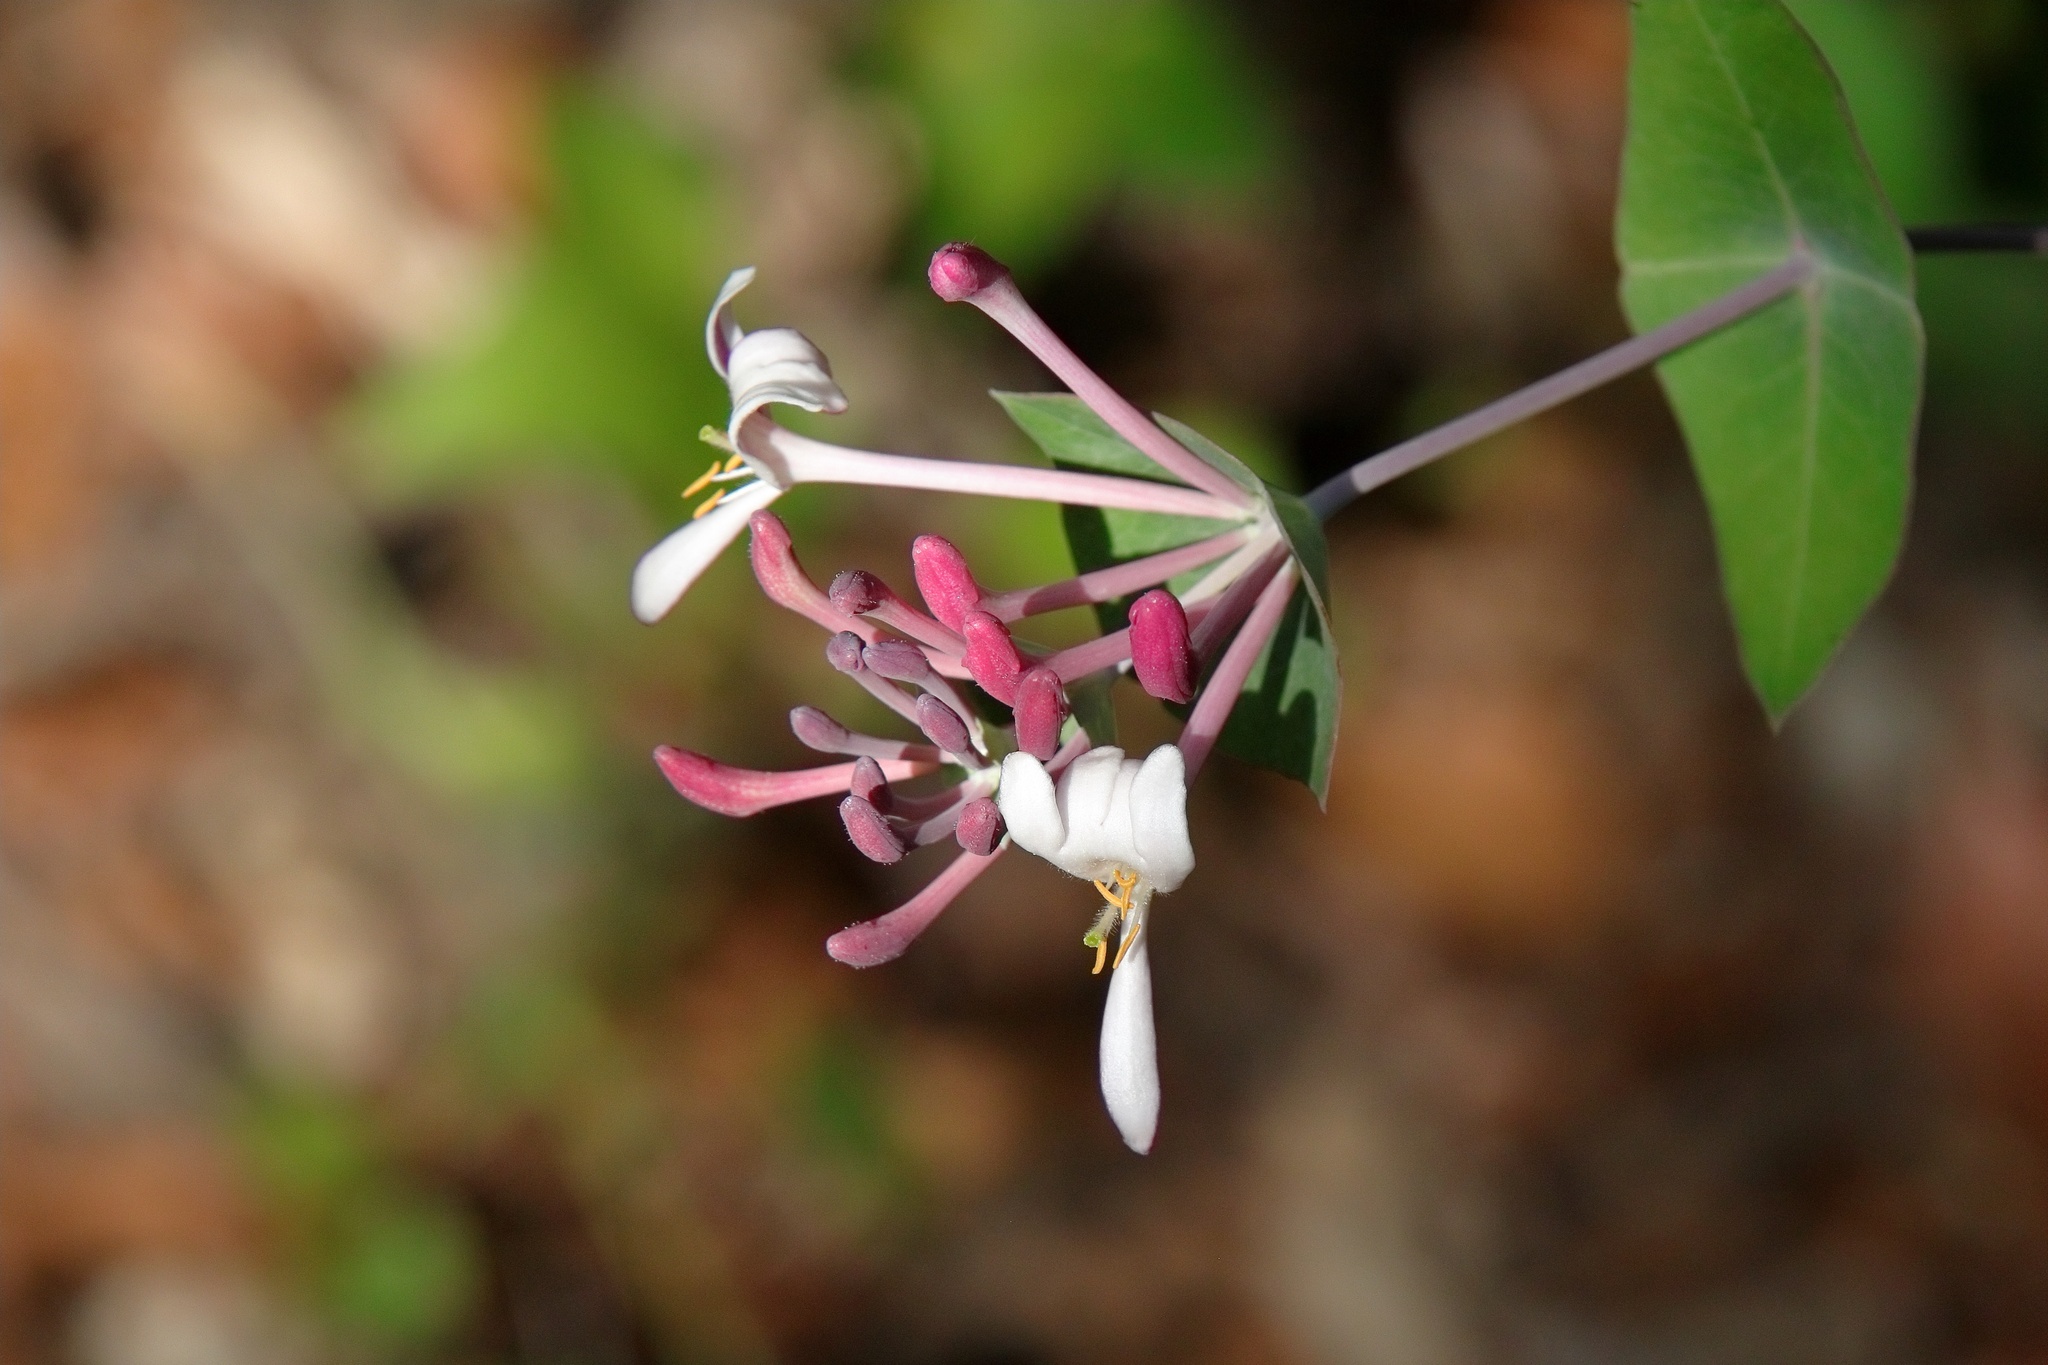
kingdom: Plantae
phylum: Tracheophyta
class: Magnoliopsida
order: Dipsacales
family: Caprifoliaceae
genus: Lonicera
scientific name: Lonicera implexa
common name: Minorca honeysuckle
